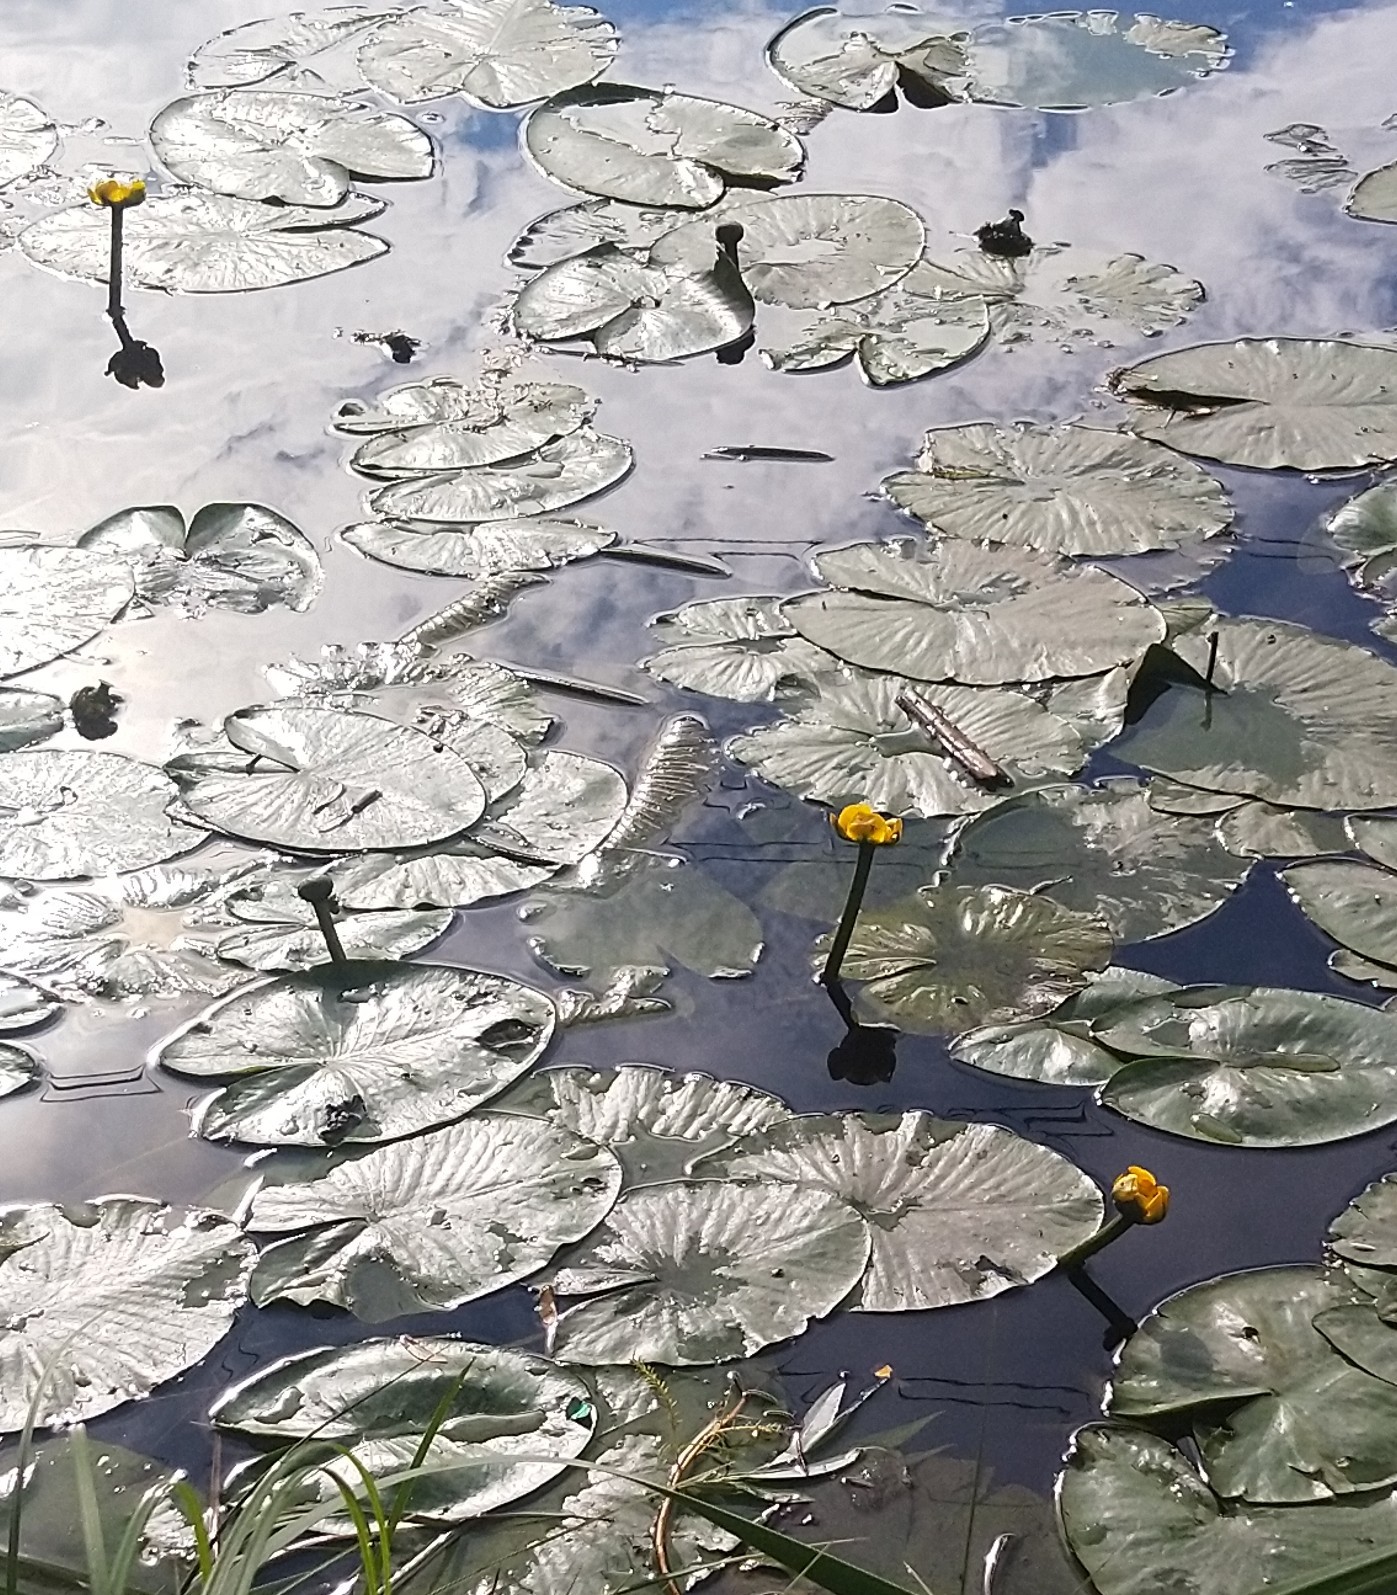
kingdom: Plantae
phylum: Tracheophyta
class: Magnoliopsida
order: Nymphaeales
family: Nymphaeaceae
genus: Nuphar
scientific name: Nuphar lutea
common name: Yellow water-lily
